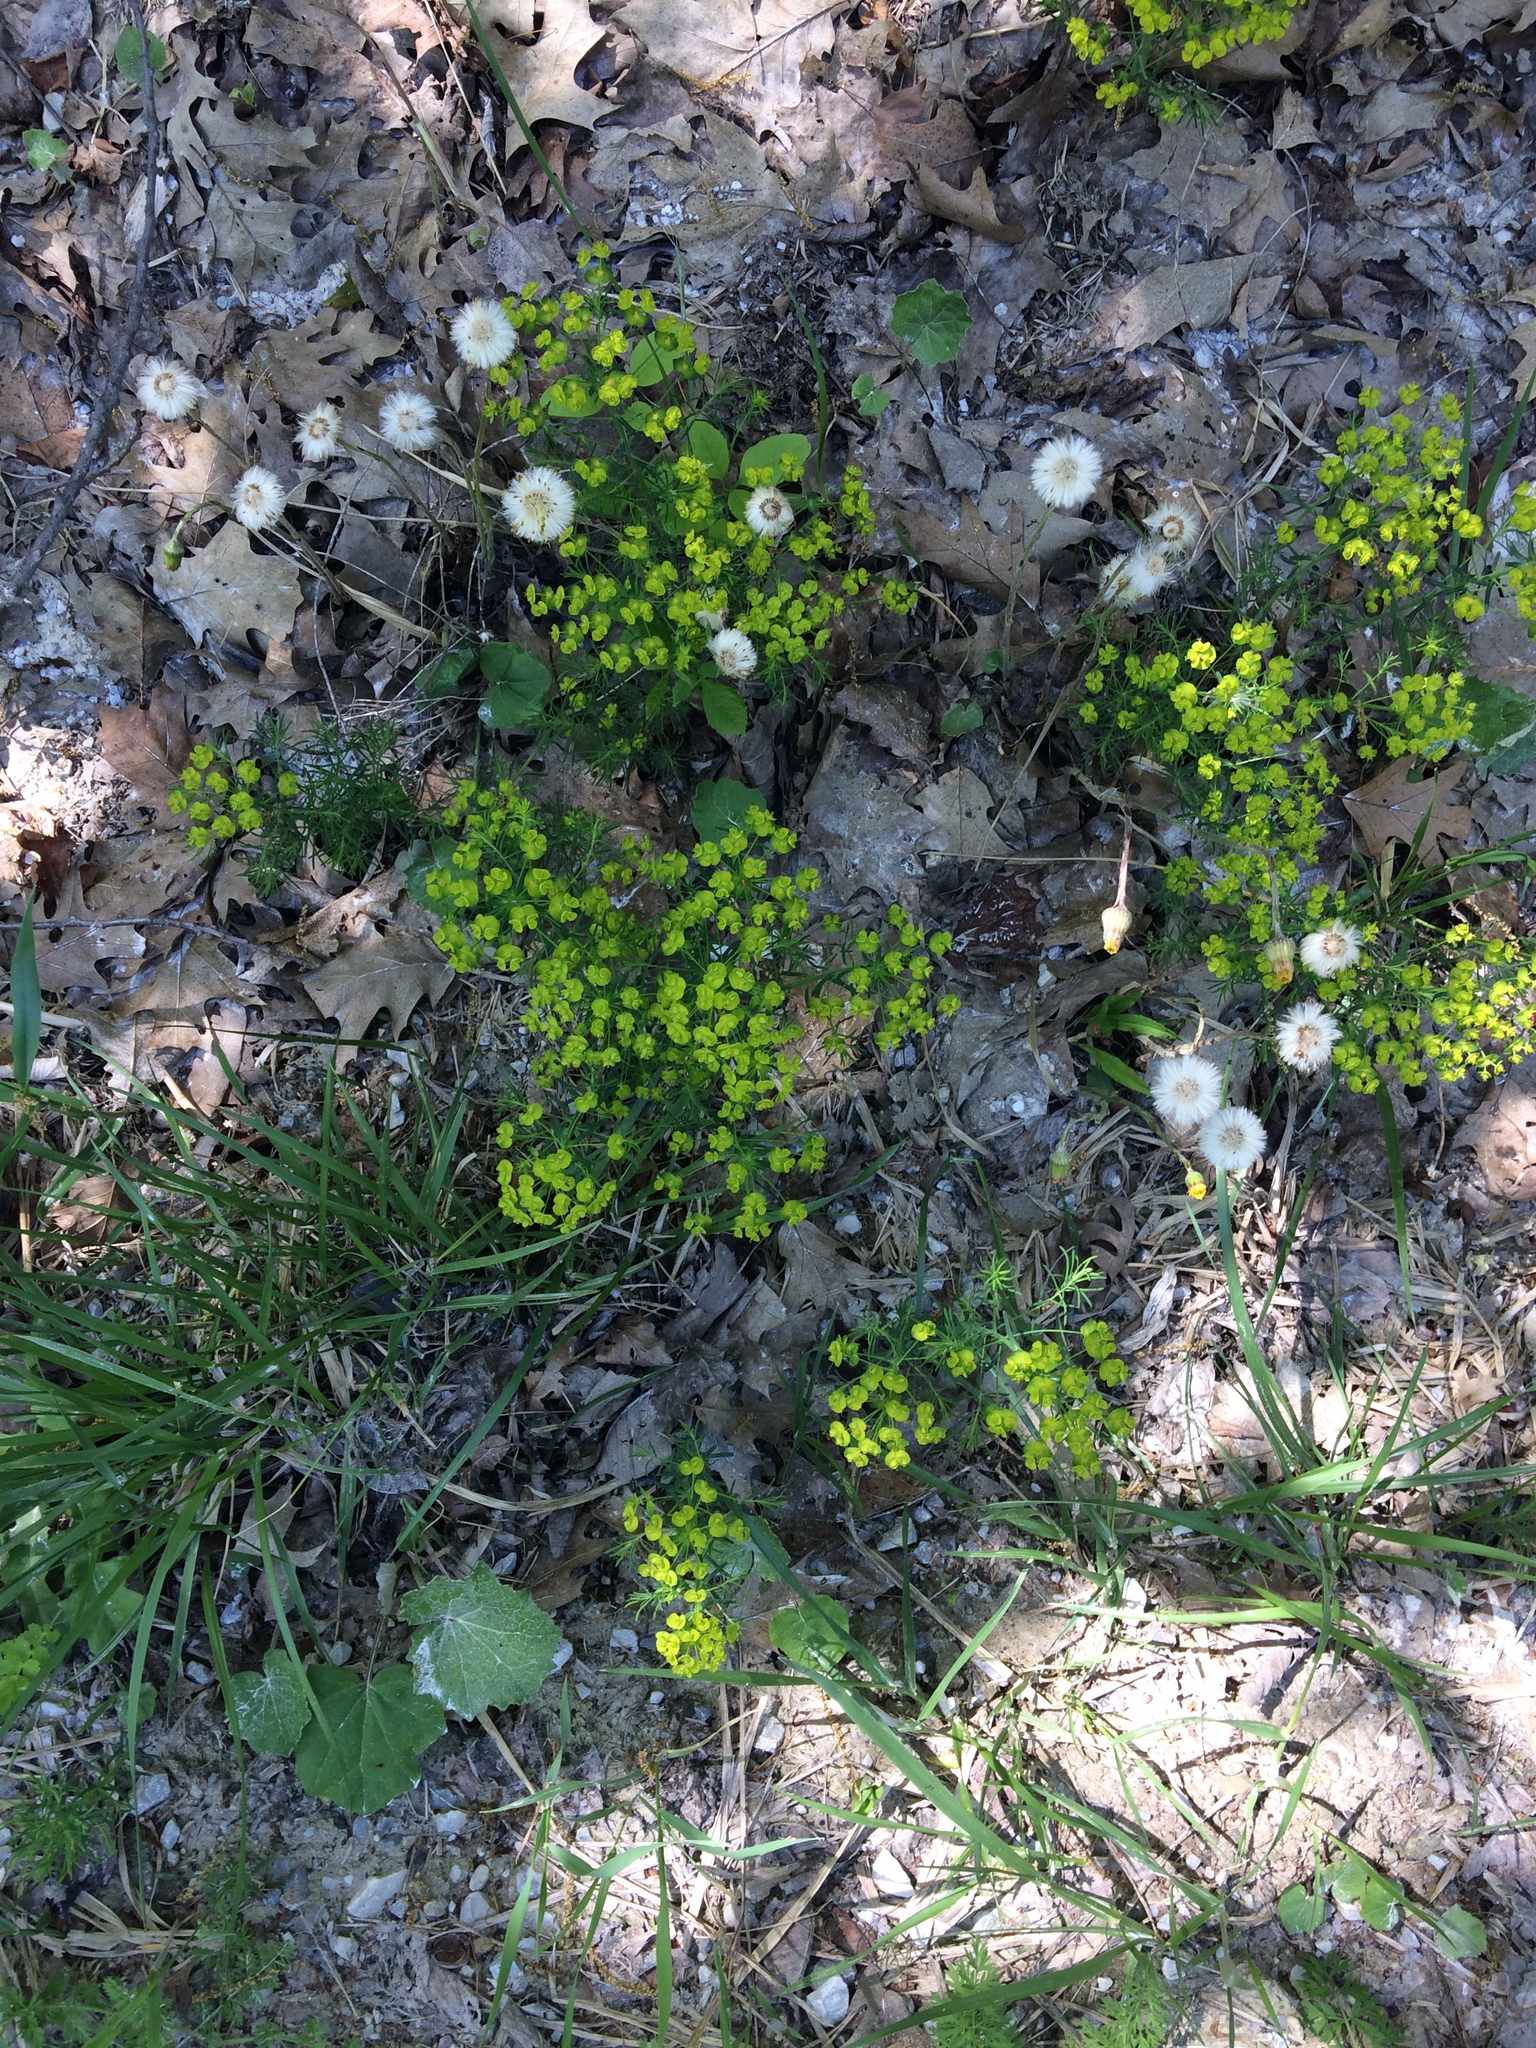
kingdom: Plantae
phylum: Tracheophyta
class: Magnoliopsida
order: Malpighiales
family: Euphorbiaceae
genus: Euphorbia
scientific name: Euphorbia cyparissias
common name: Cypress spurge
